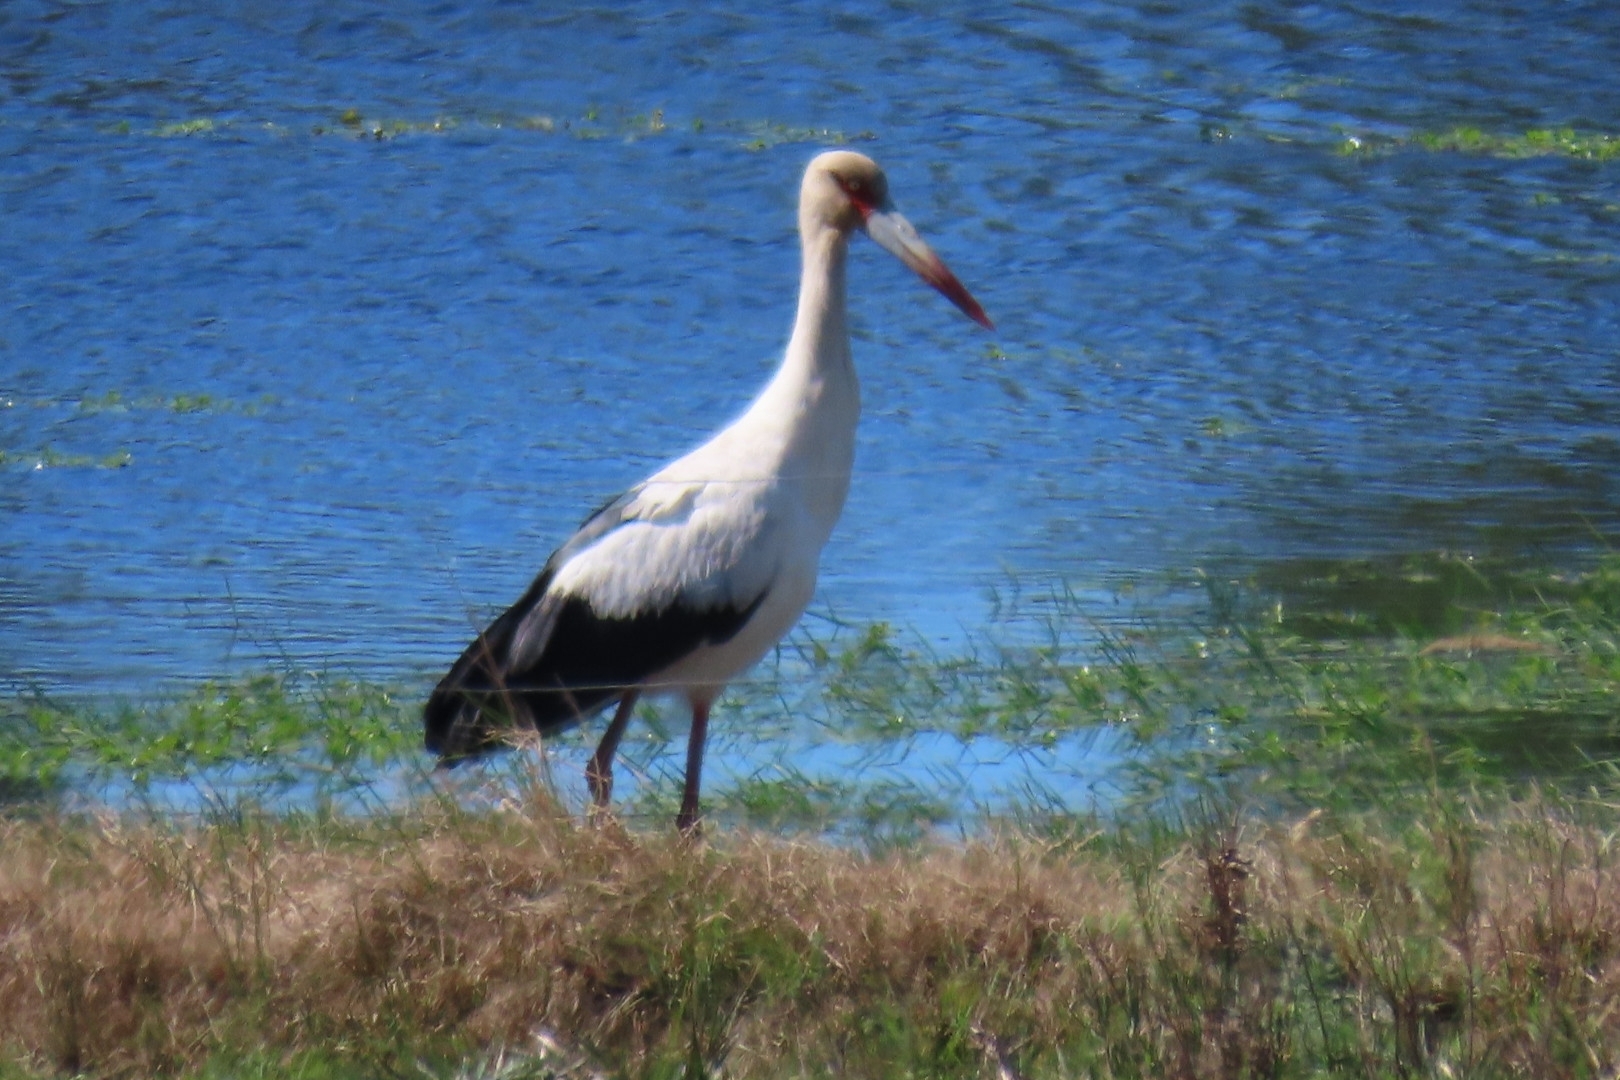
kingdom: Animalia
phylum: Chordata
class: Aves
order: Ciconiiformes
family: Ciconiidae
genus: Ciconia
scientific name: Ciconia maguari
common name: Maguari stork
